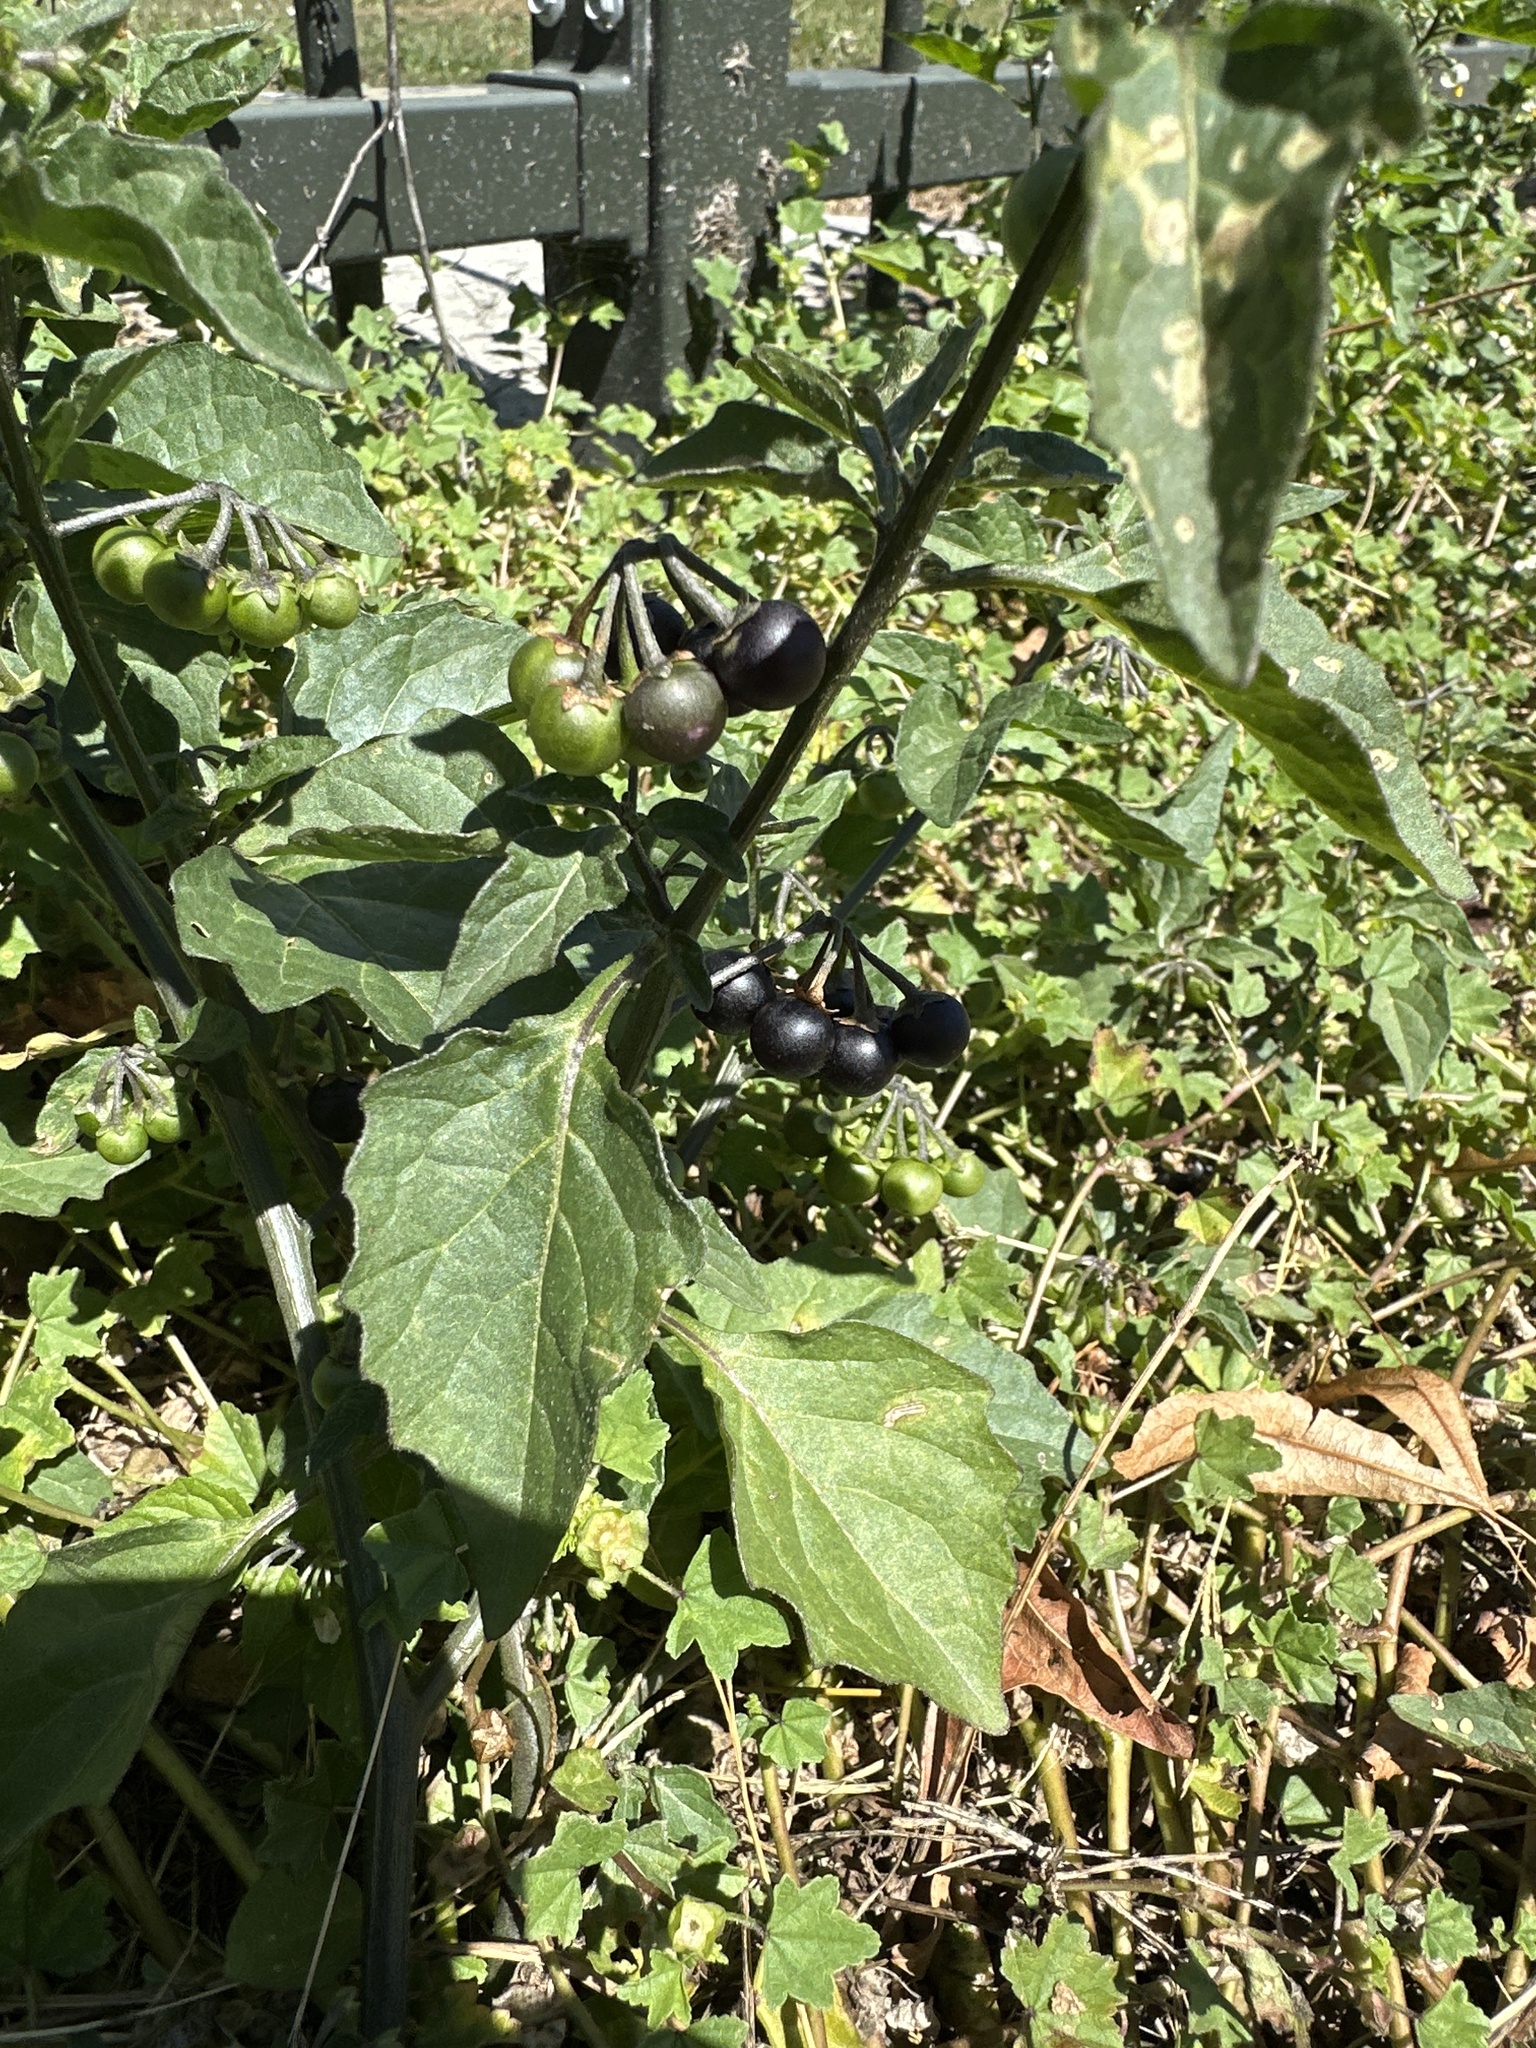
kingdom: Plantae
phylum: Tracheophyta
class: Magnoliopsida
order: Solanales
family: Solanaceae
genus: Solanum
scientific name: Solanum nigrum
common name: Black nightshade
